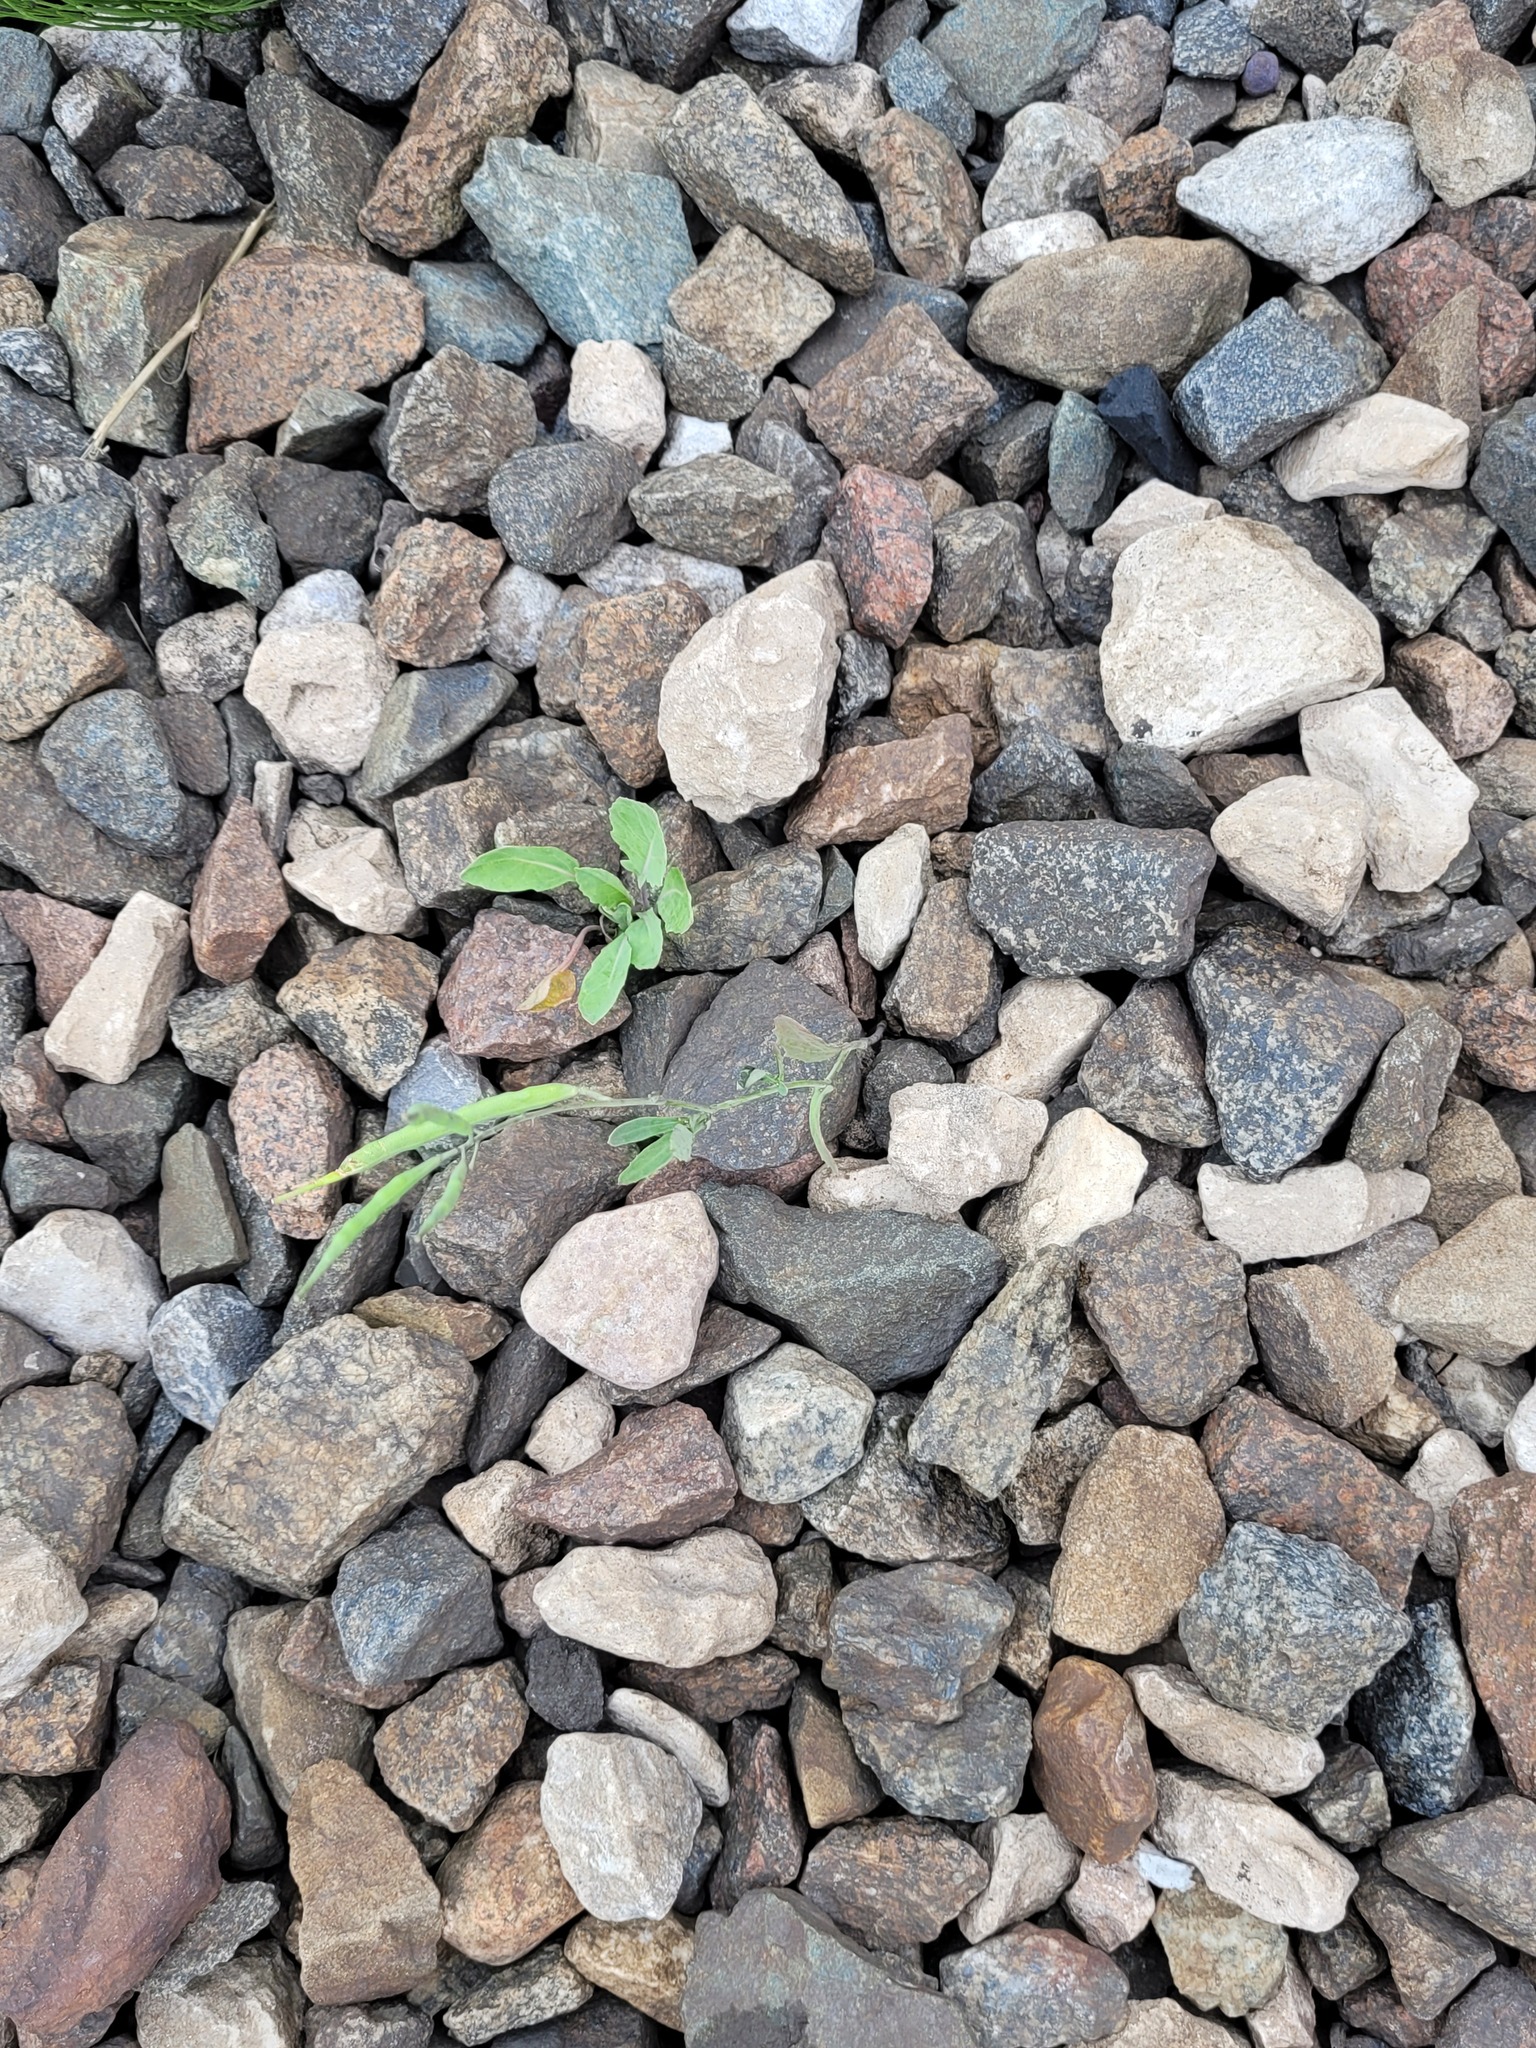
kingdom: Plantae
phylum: Tracheophyta
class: Magnoliopsida
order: Brassicales
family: Brassicaceae
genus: Brassica
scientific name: Brassica napus
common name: Rape
